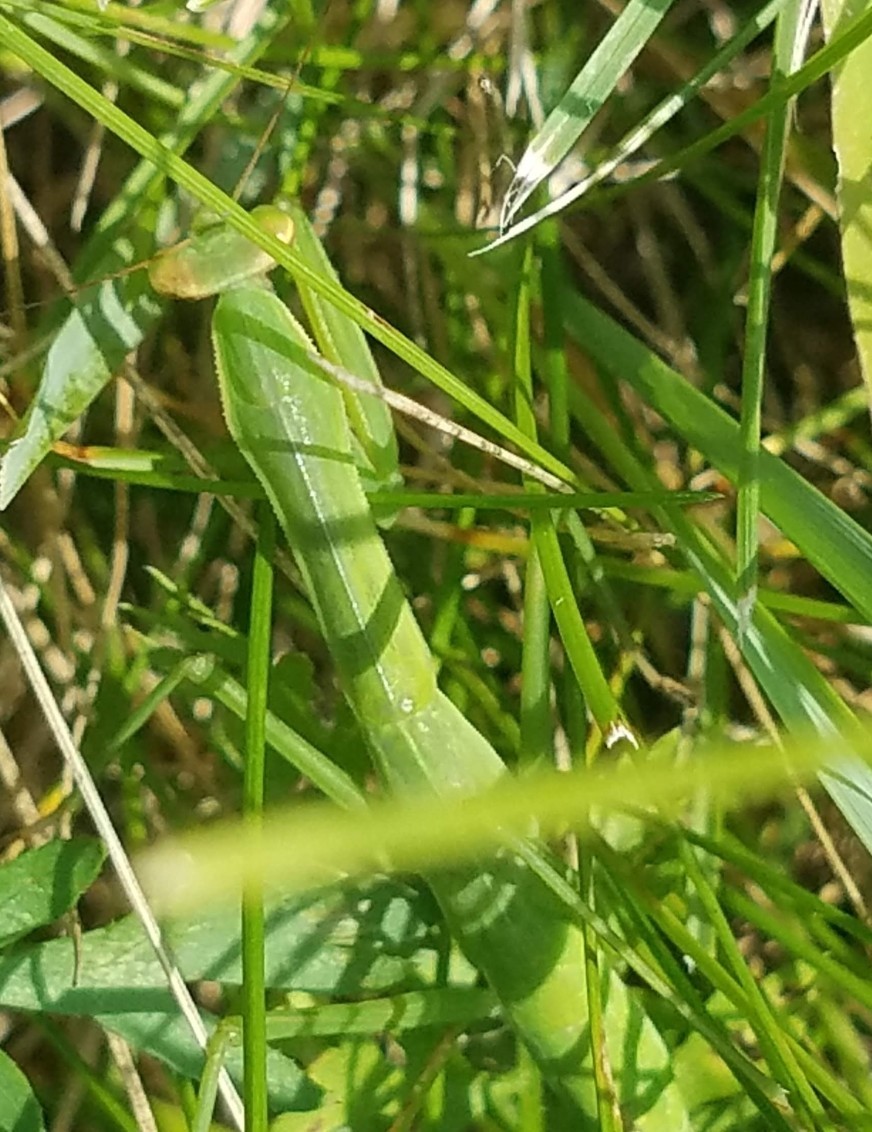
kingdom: Animalia
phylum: Arthropoda
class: Insecta
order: Mantodea
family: Mantidae
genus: Tenodera
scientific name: Tenodera sinensis
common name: Chinese mantis
